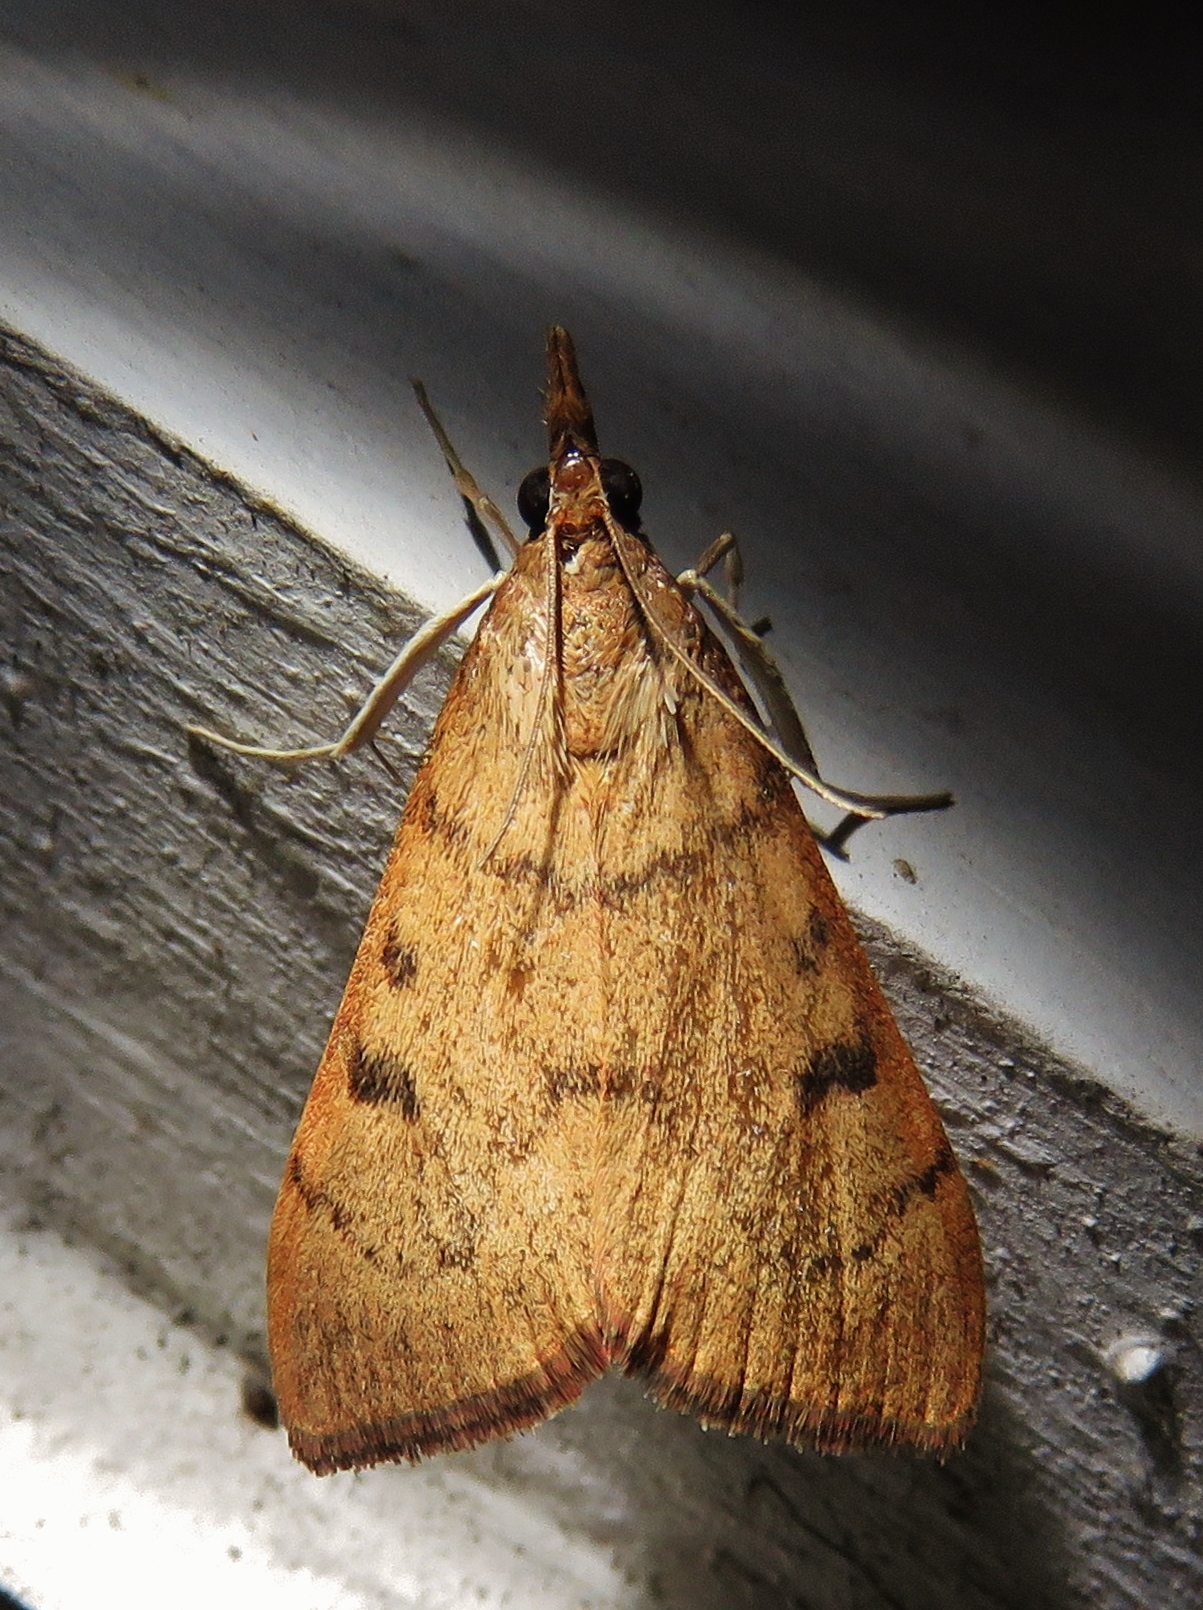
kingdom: Animalia
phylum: Arthropoda
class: Insecta
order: Lepidoptera
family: Crambidae
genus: Uresiphita
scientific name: Uresiphita reversalis
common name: Genista broom moth
